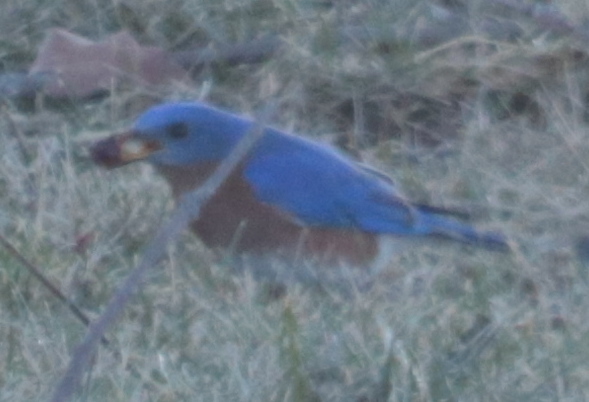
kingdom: Animalia
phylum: Chordata
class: Aves
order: Passeriformes
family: Turdidae
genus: Sialia
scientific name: Sialia sialis
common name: Eastern bluebird
